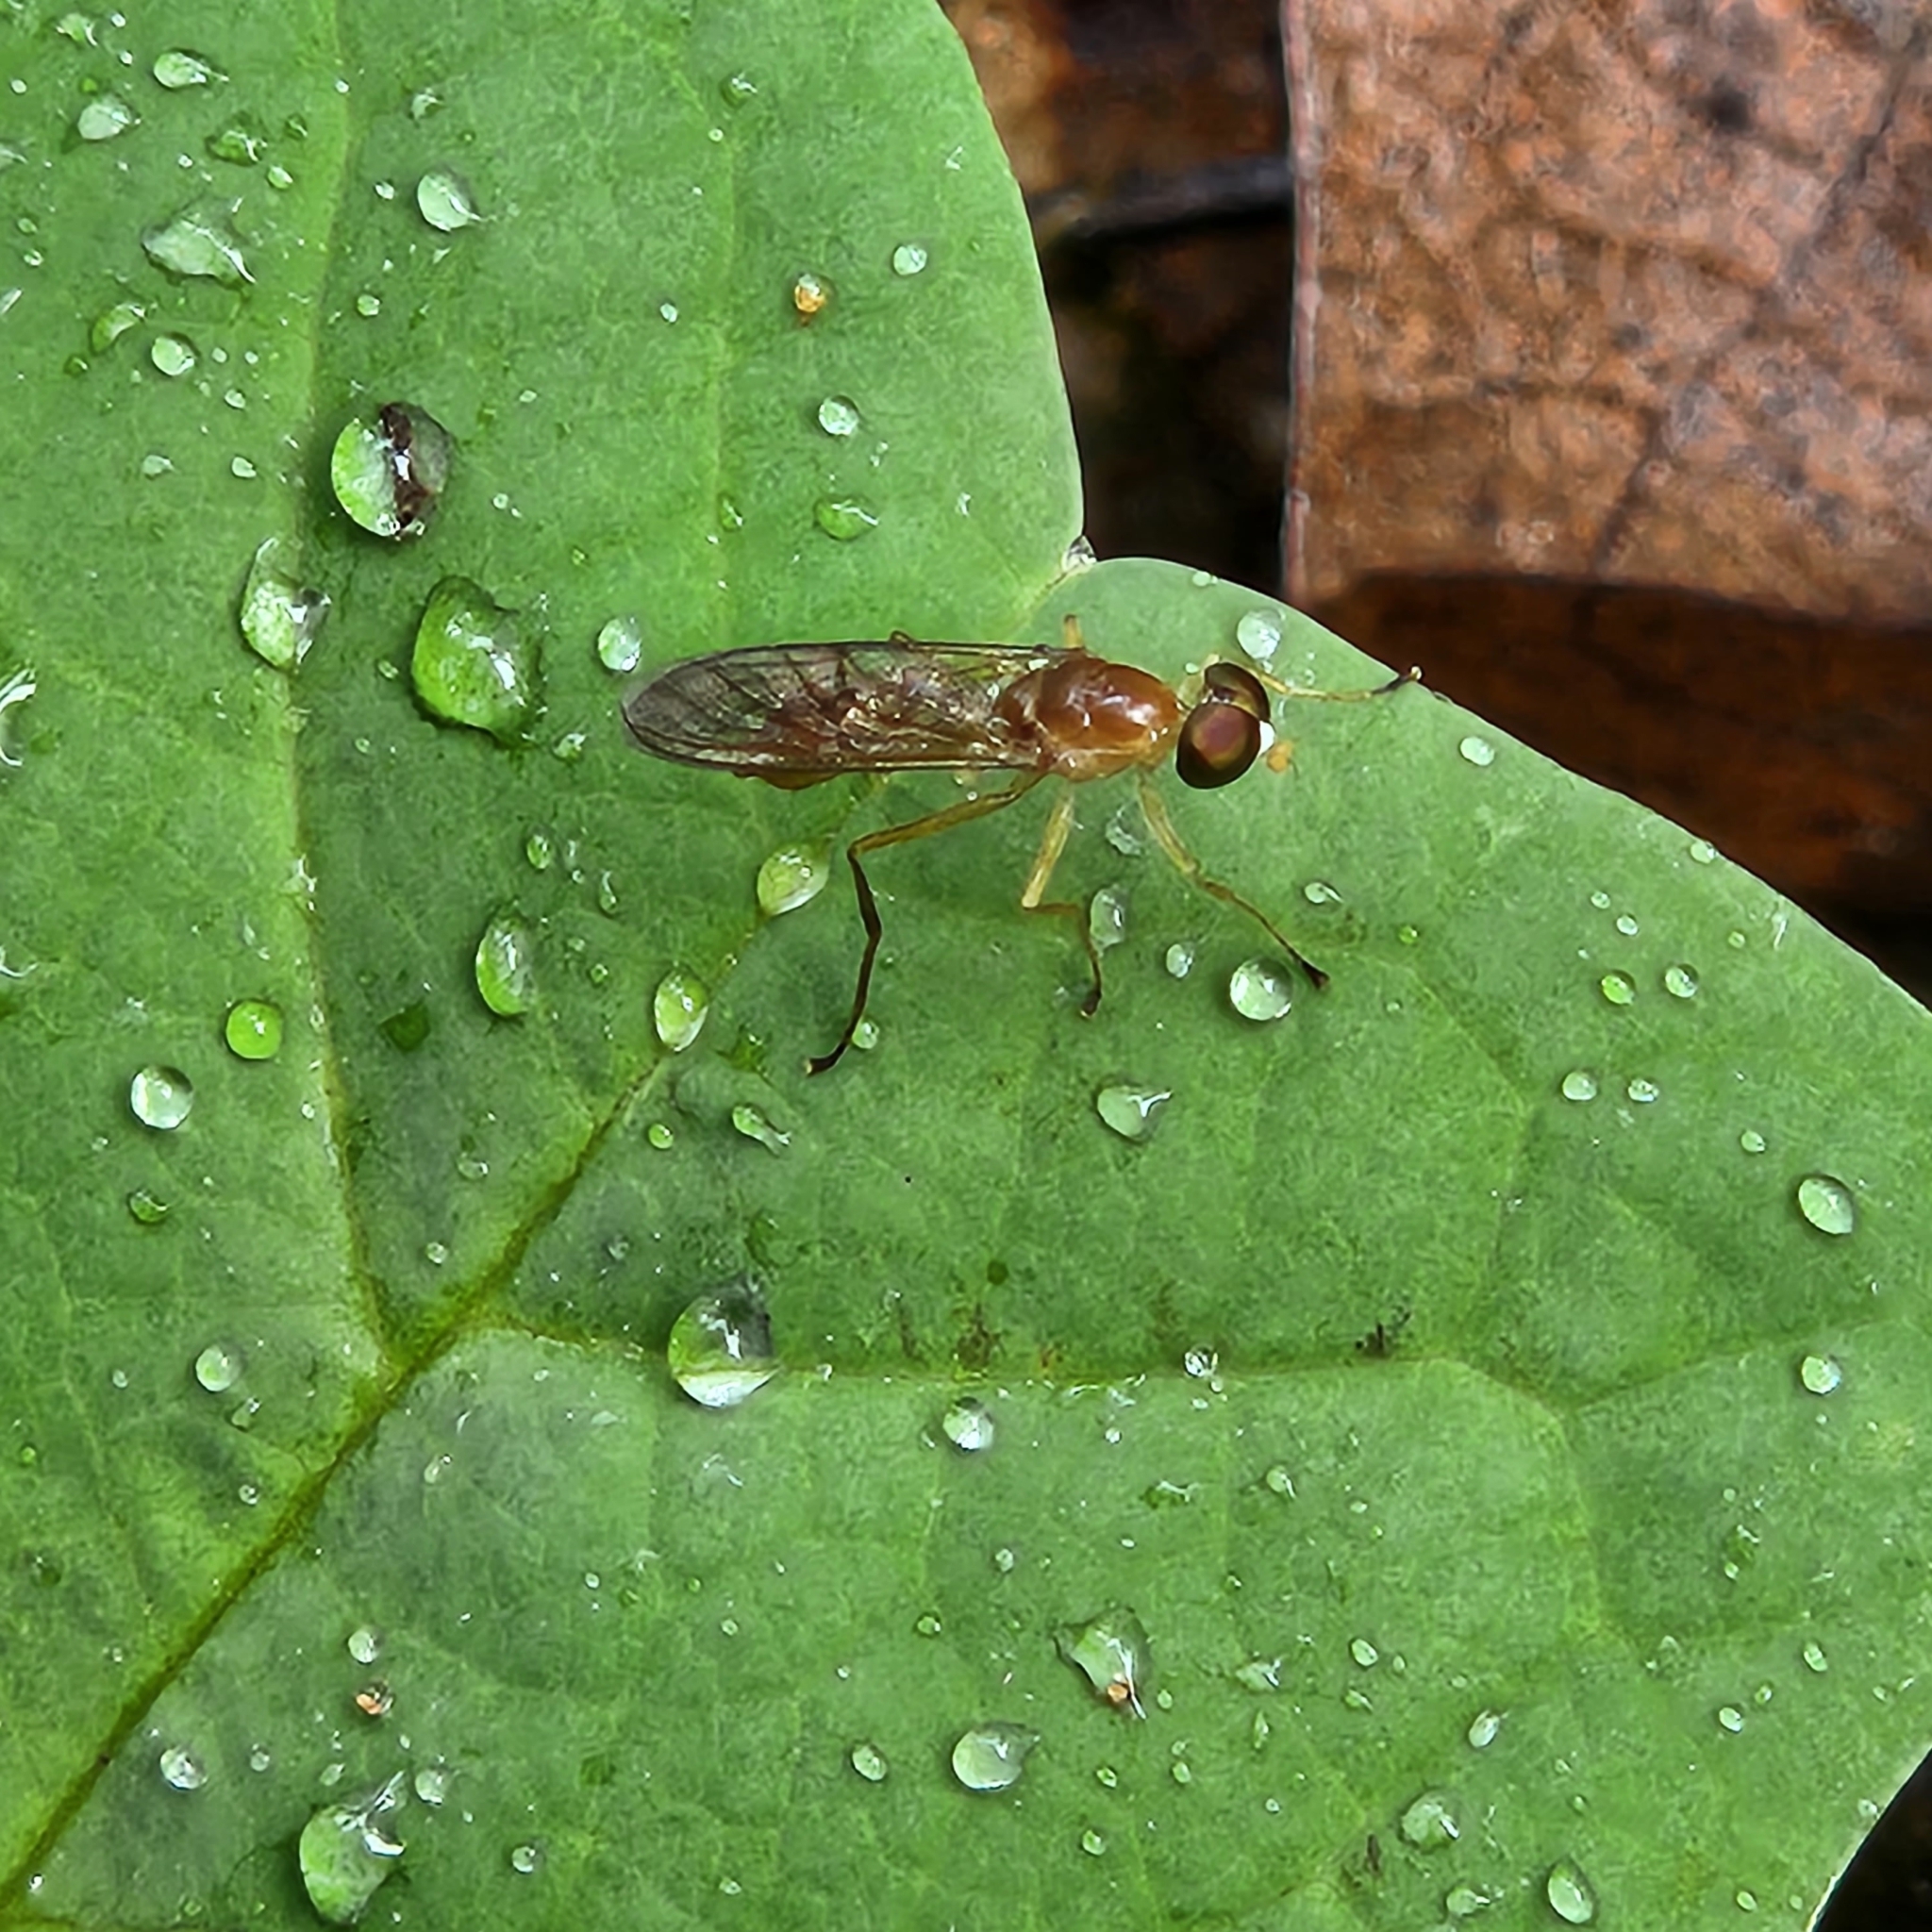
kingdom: Animalia
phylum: Arthropoda
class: Insecta
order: Diptera
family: Stratiomyidae
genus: Ptecticus
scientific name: Ptecticus trivittatus
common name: Compost fly
